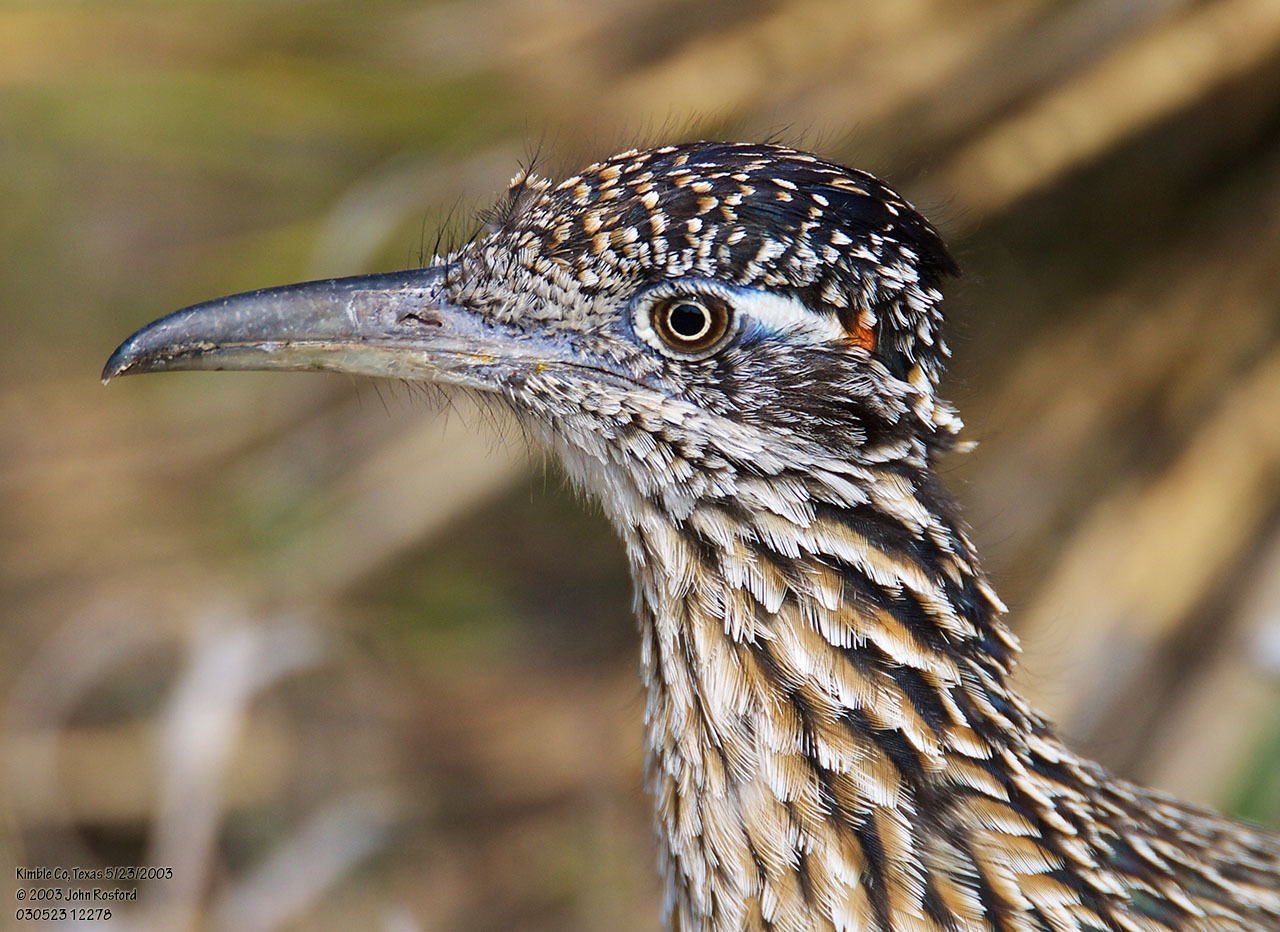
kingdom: Animalia
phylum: Chordata
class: Aves
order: Cuculiformes
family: Cuculidae
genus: Geococcyx
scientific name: Geococcyx californianus
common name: Greater roadrunner
